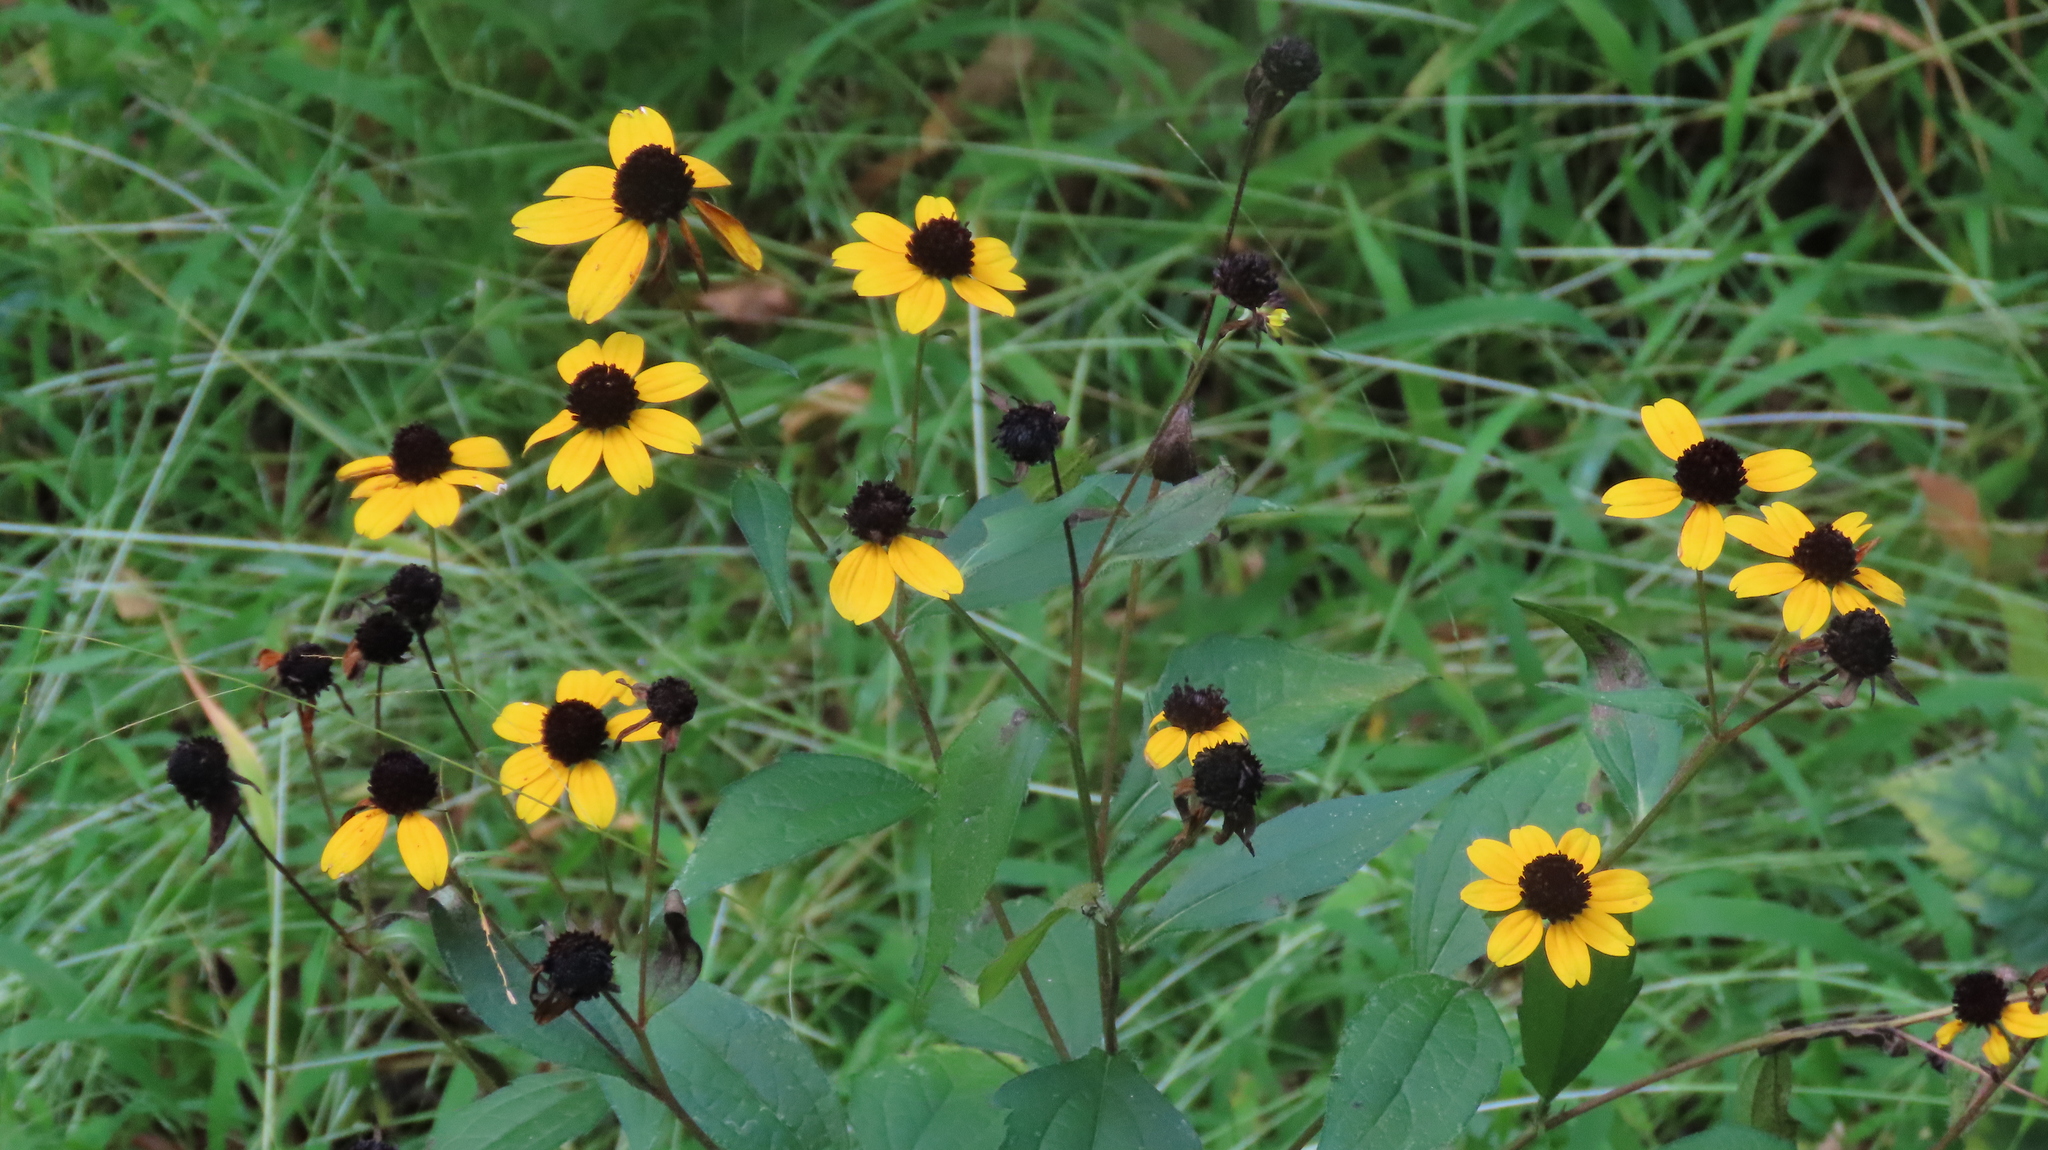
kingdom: Plantae
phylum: Tracheophyta
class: Magnoliopsida
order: Asterales
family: Asteraceae
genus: Rudbeckia
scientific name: Rudbeckia triloba
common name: Thin-leaved coneflower
